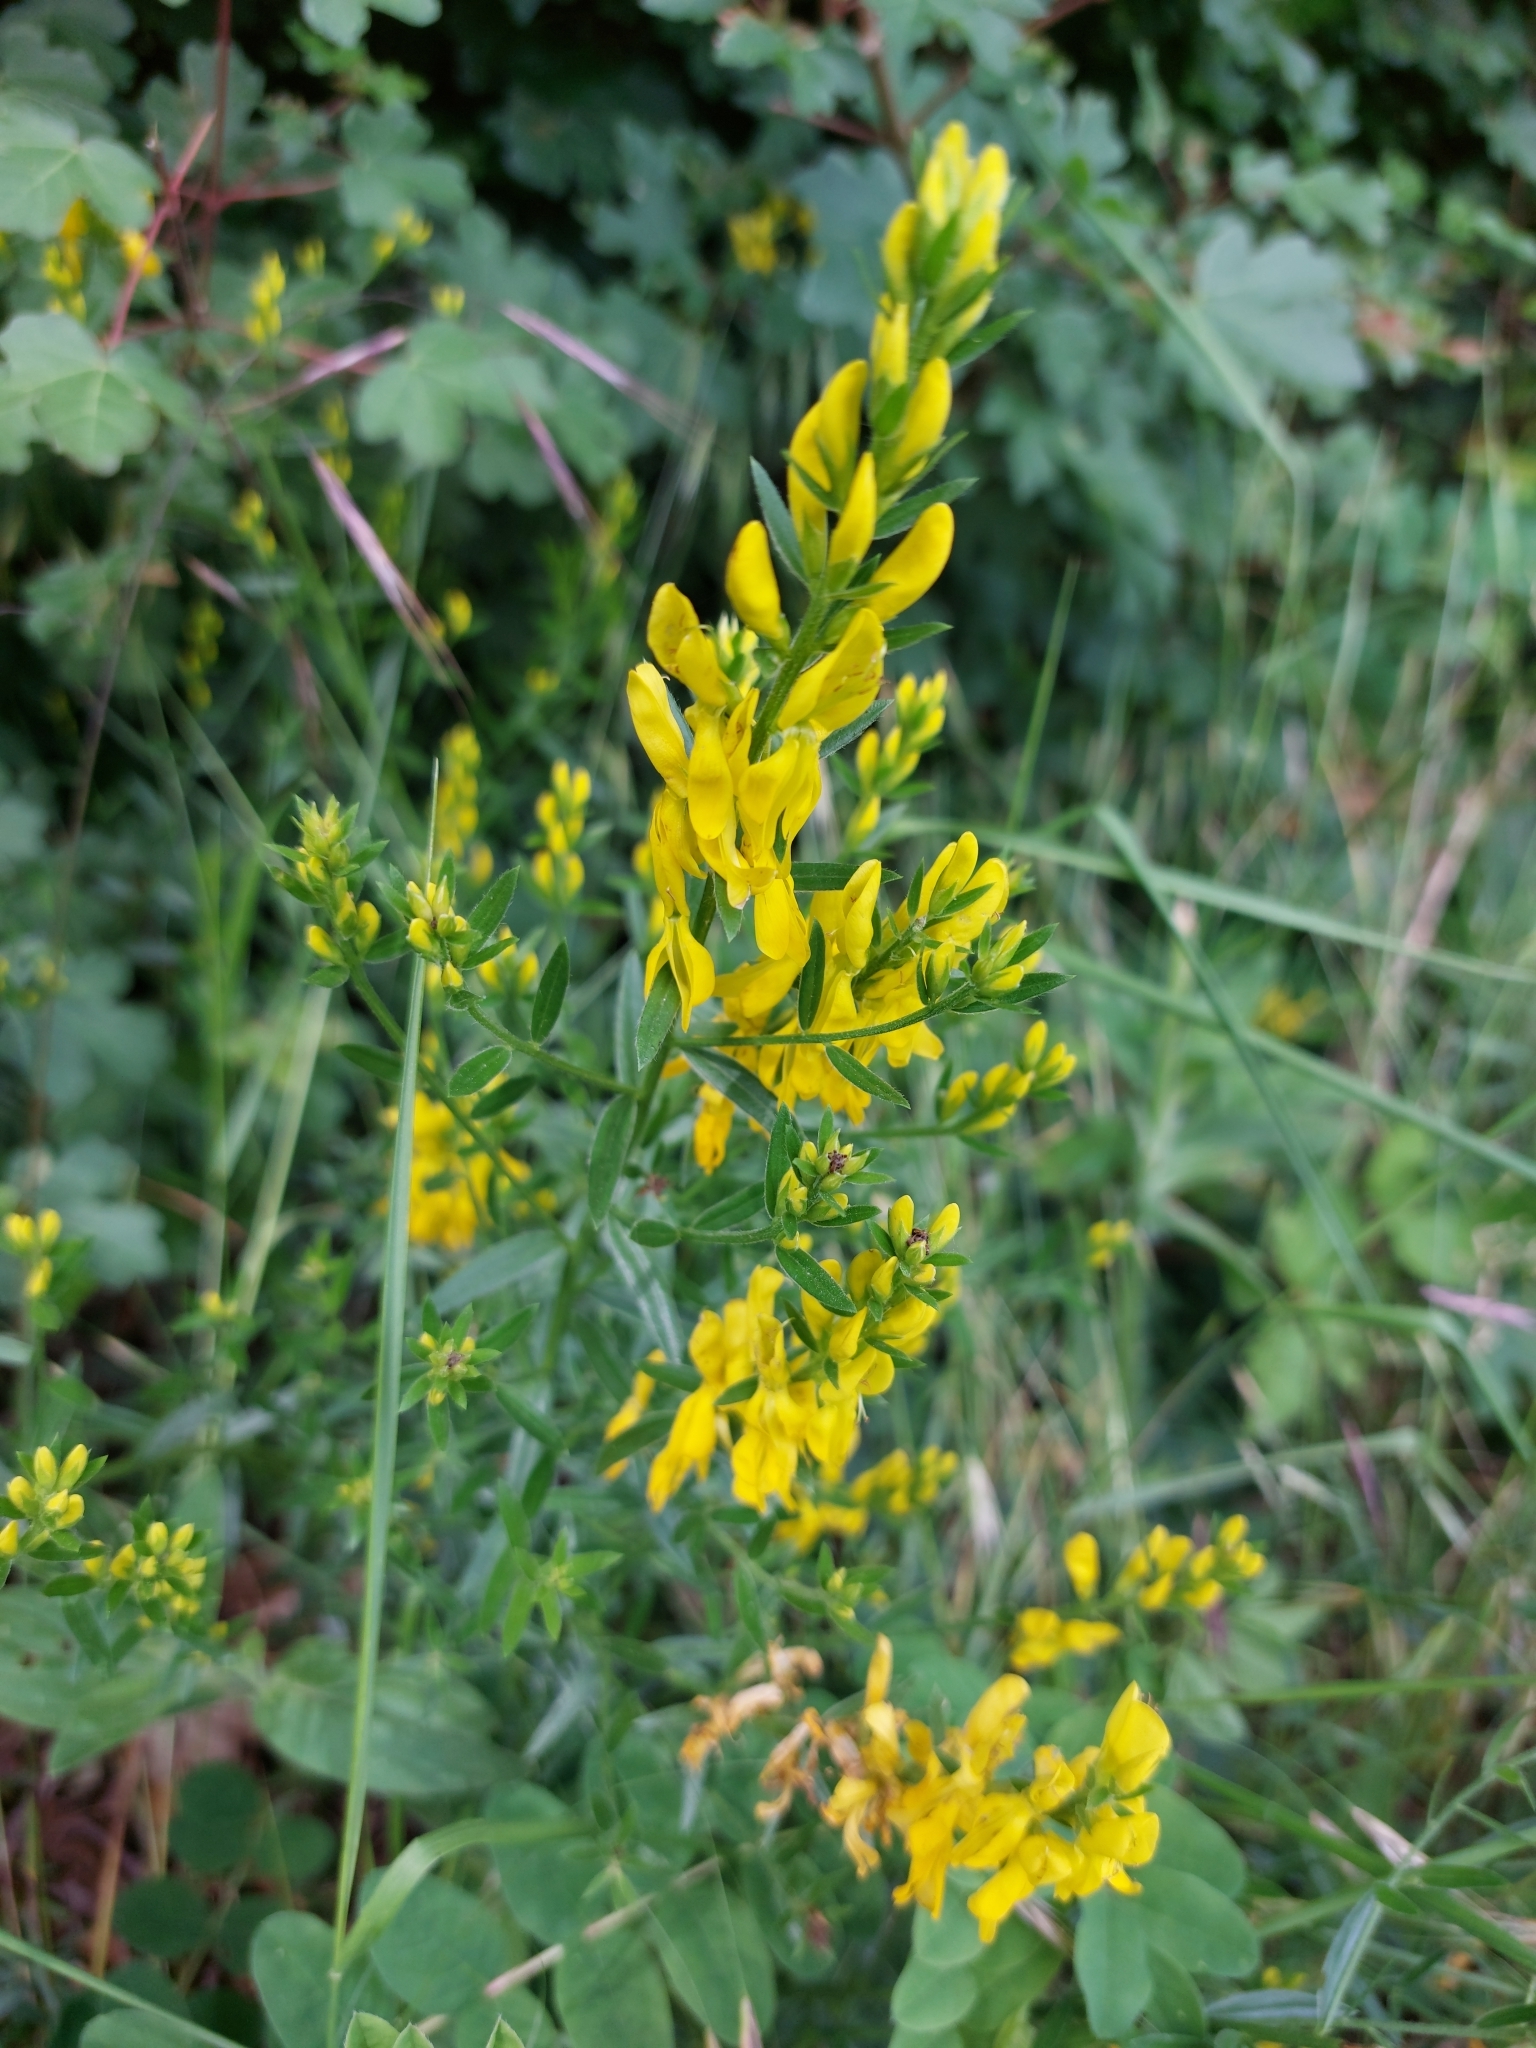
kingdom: Plantae
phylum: Tracheophyta
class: Magnoliopsida
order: Fabales
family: Fabaceae
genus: Genista
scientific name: Genista tinctoria
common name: Dyer's greenweed
